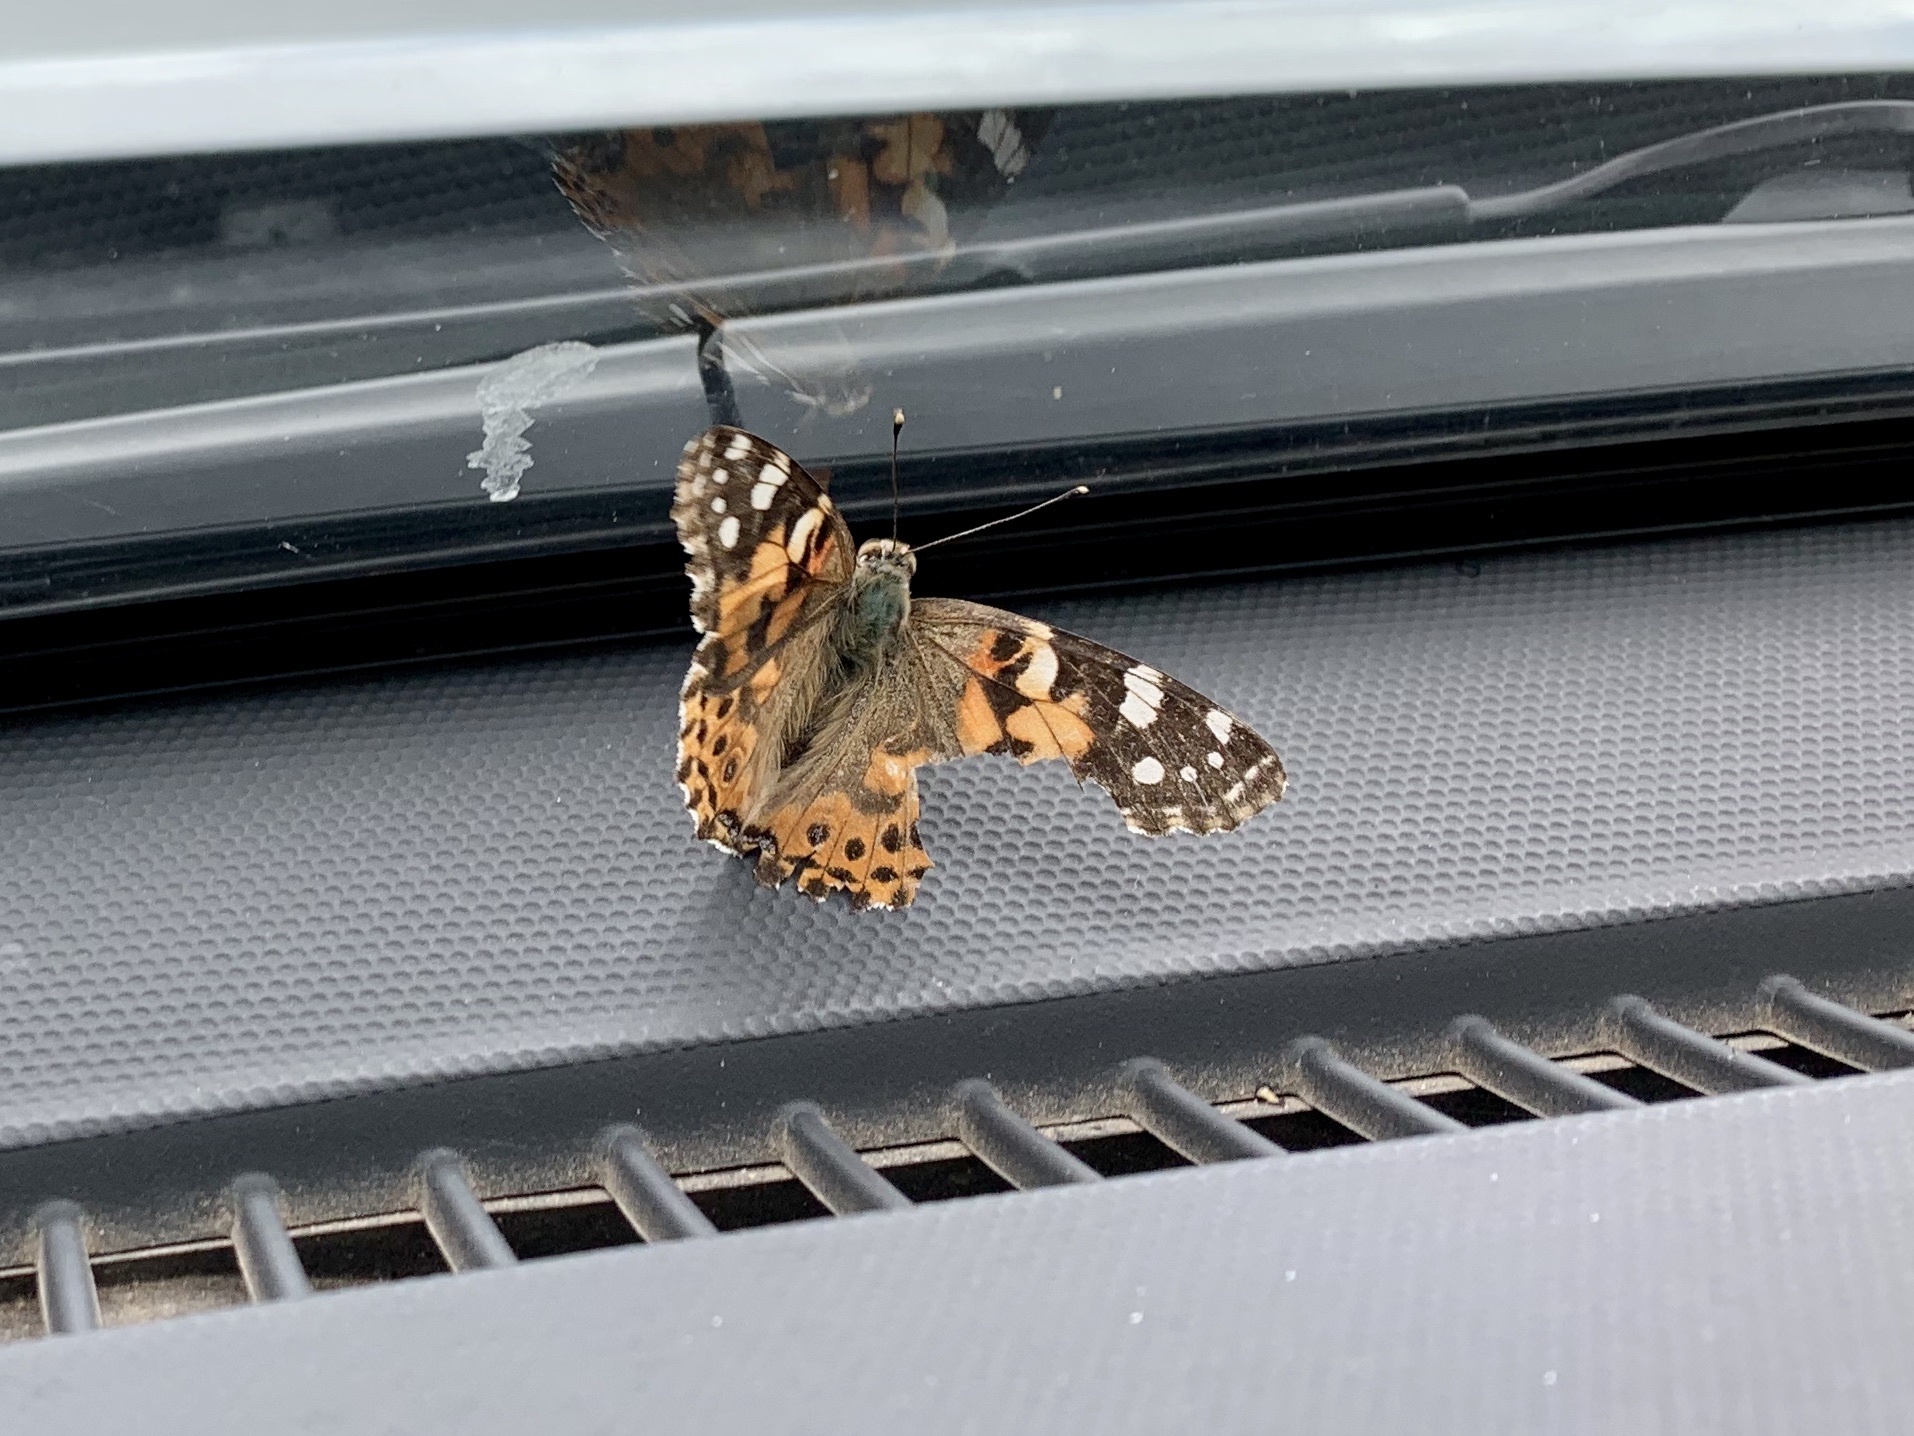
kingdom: Animalia
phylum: Arthropoda
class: Insecta
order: Lepidoptera
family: Nymphalidae
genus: Vanessa
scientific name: Vanessa cardui
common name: Painted lady
